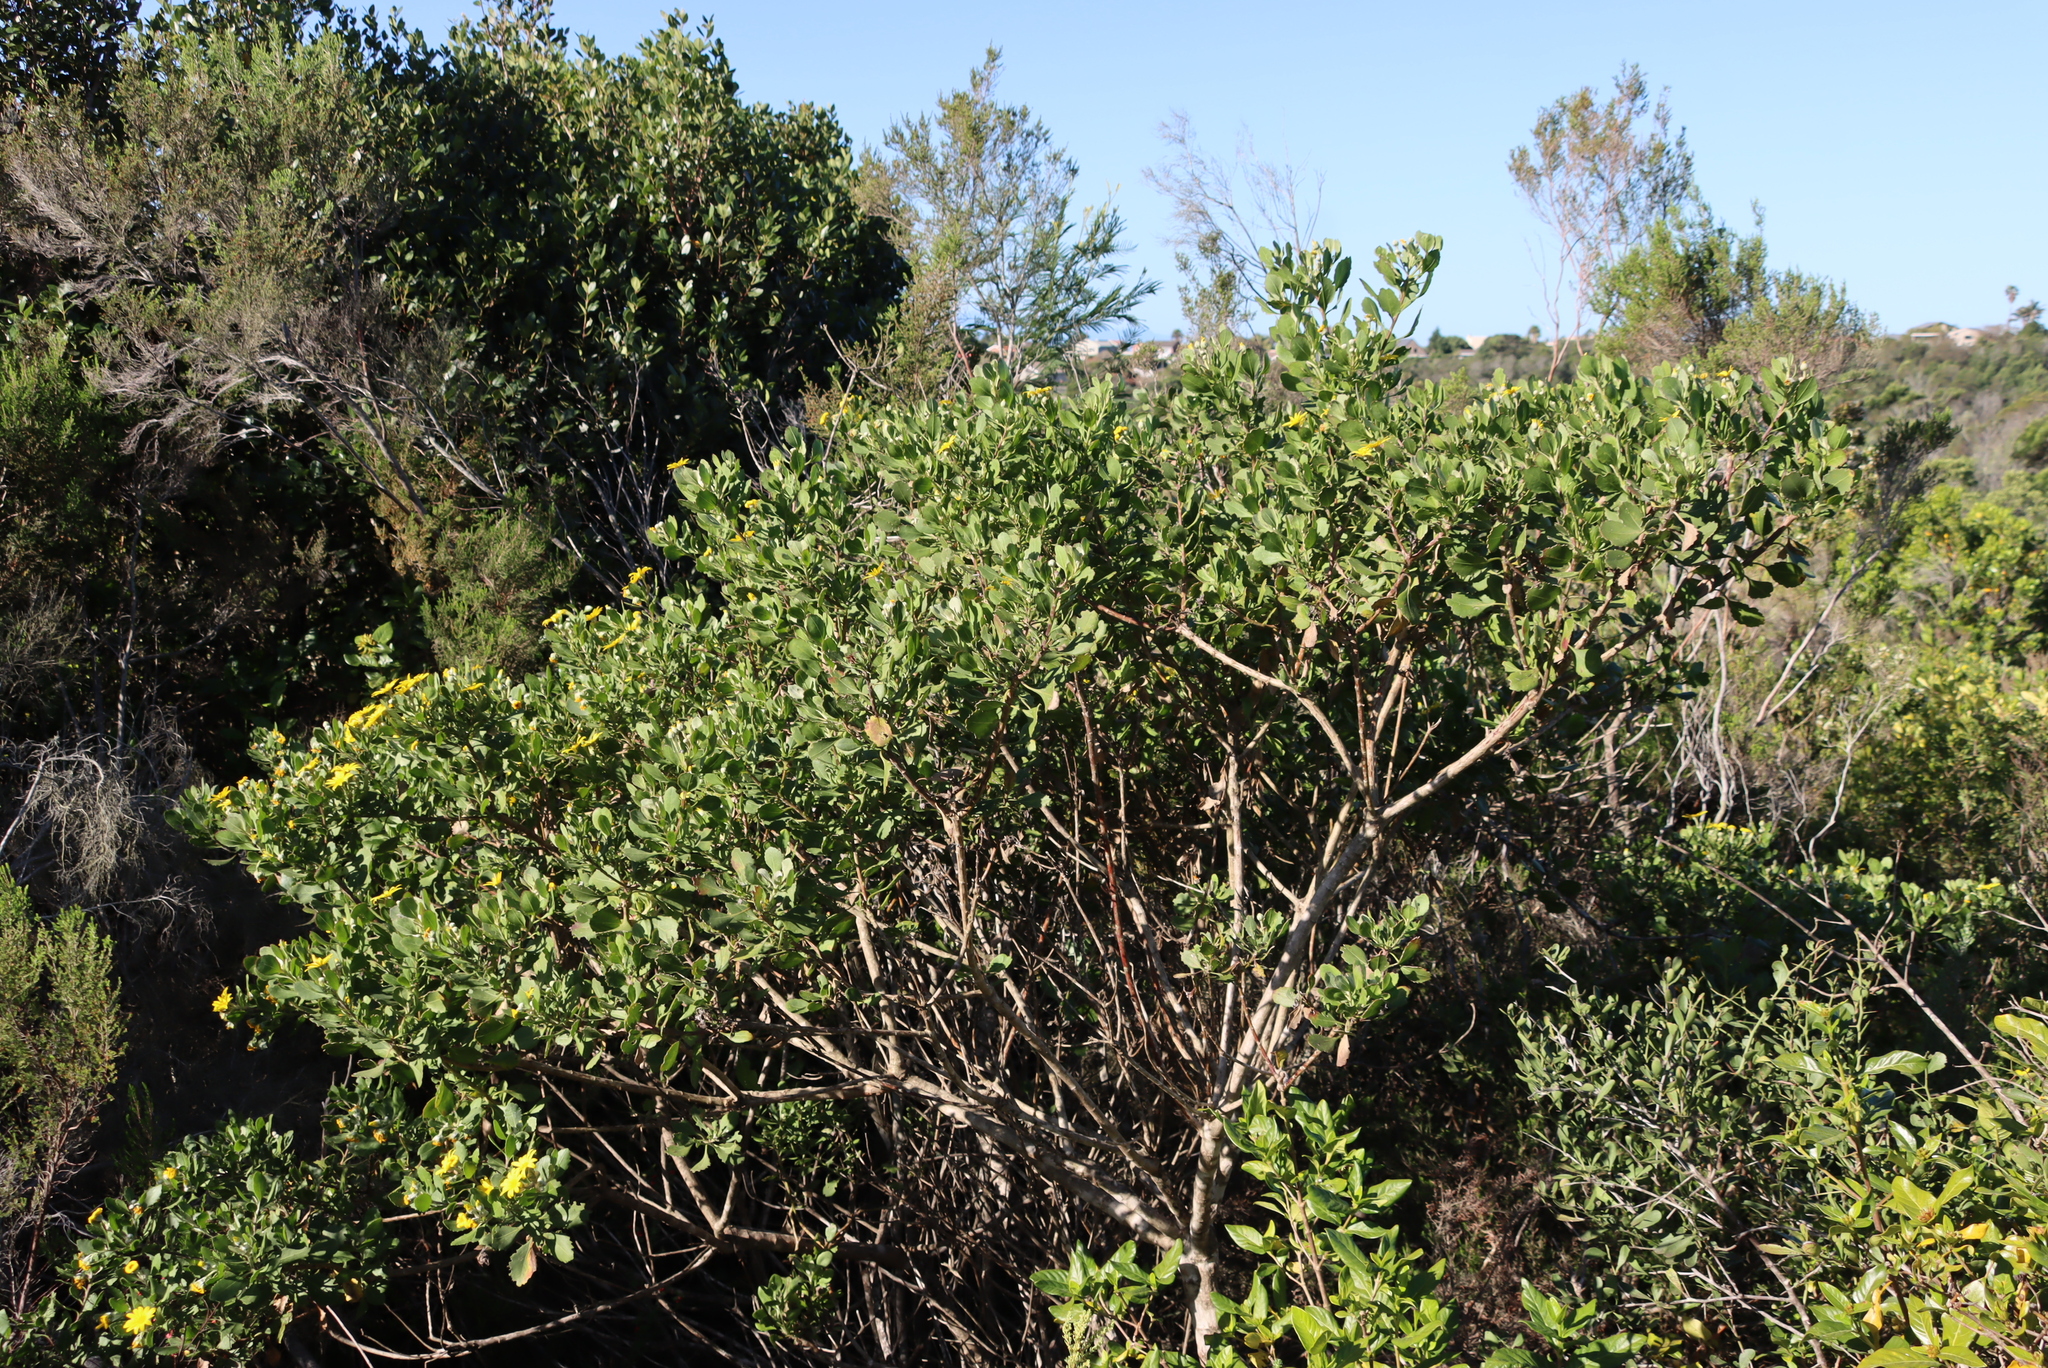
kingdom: Plantae
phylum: Tracheophyta
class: Magnoliopsida
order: Asterales
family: Asteraceae
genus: Osteospermum
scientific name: Osteospermum moniliferum
